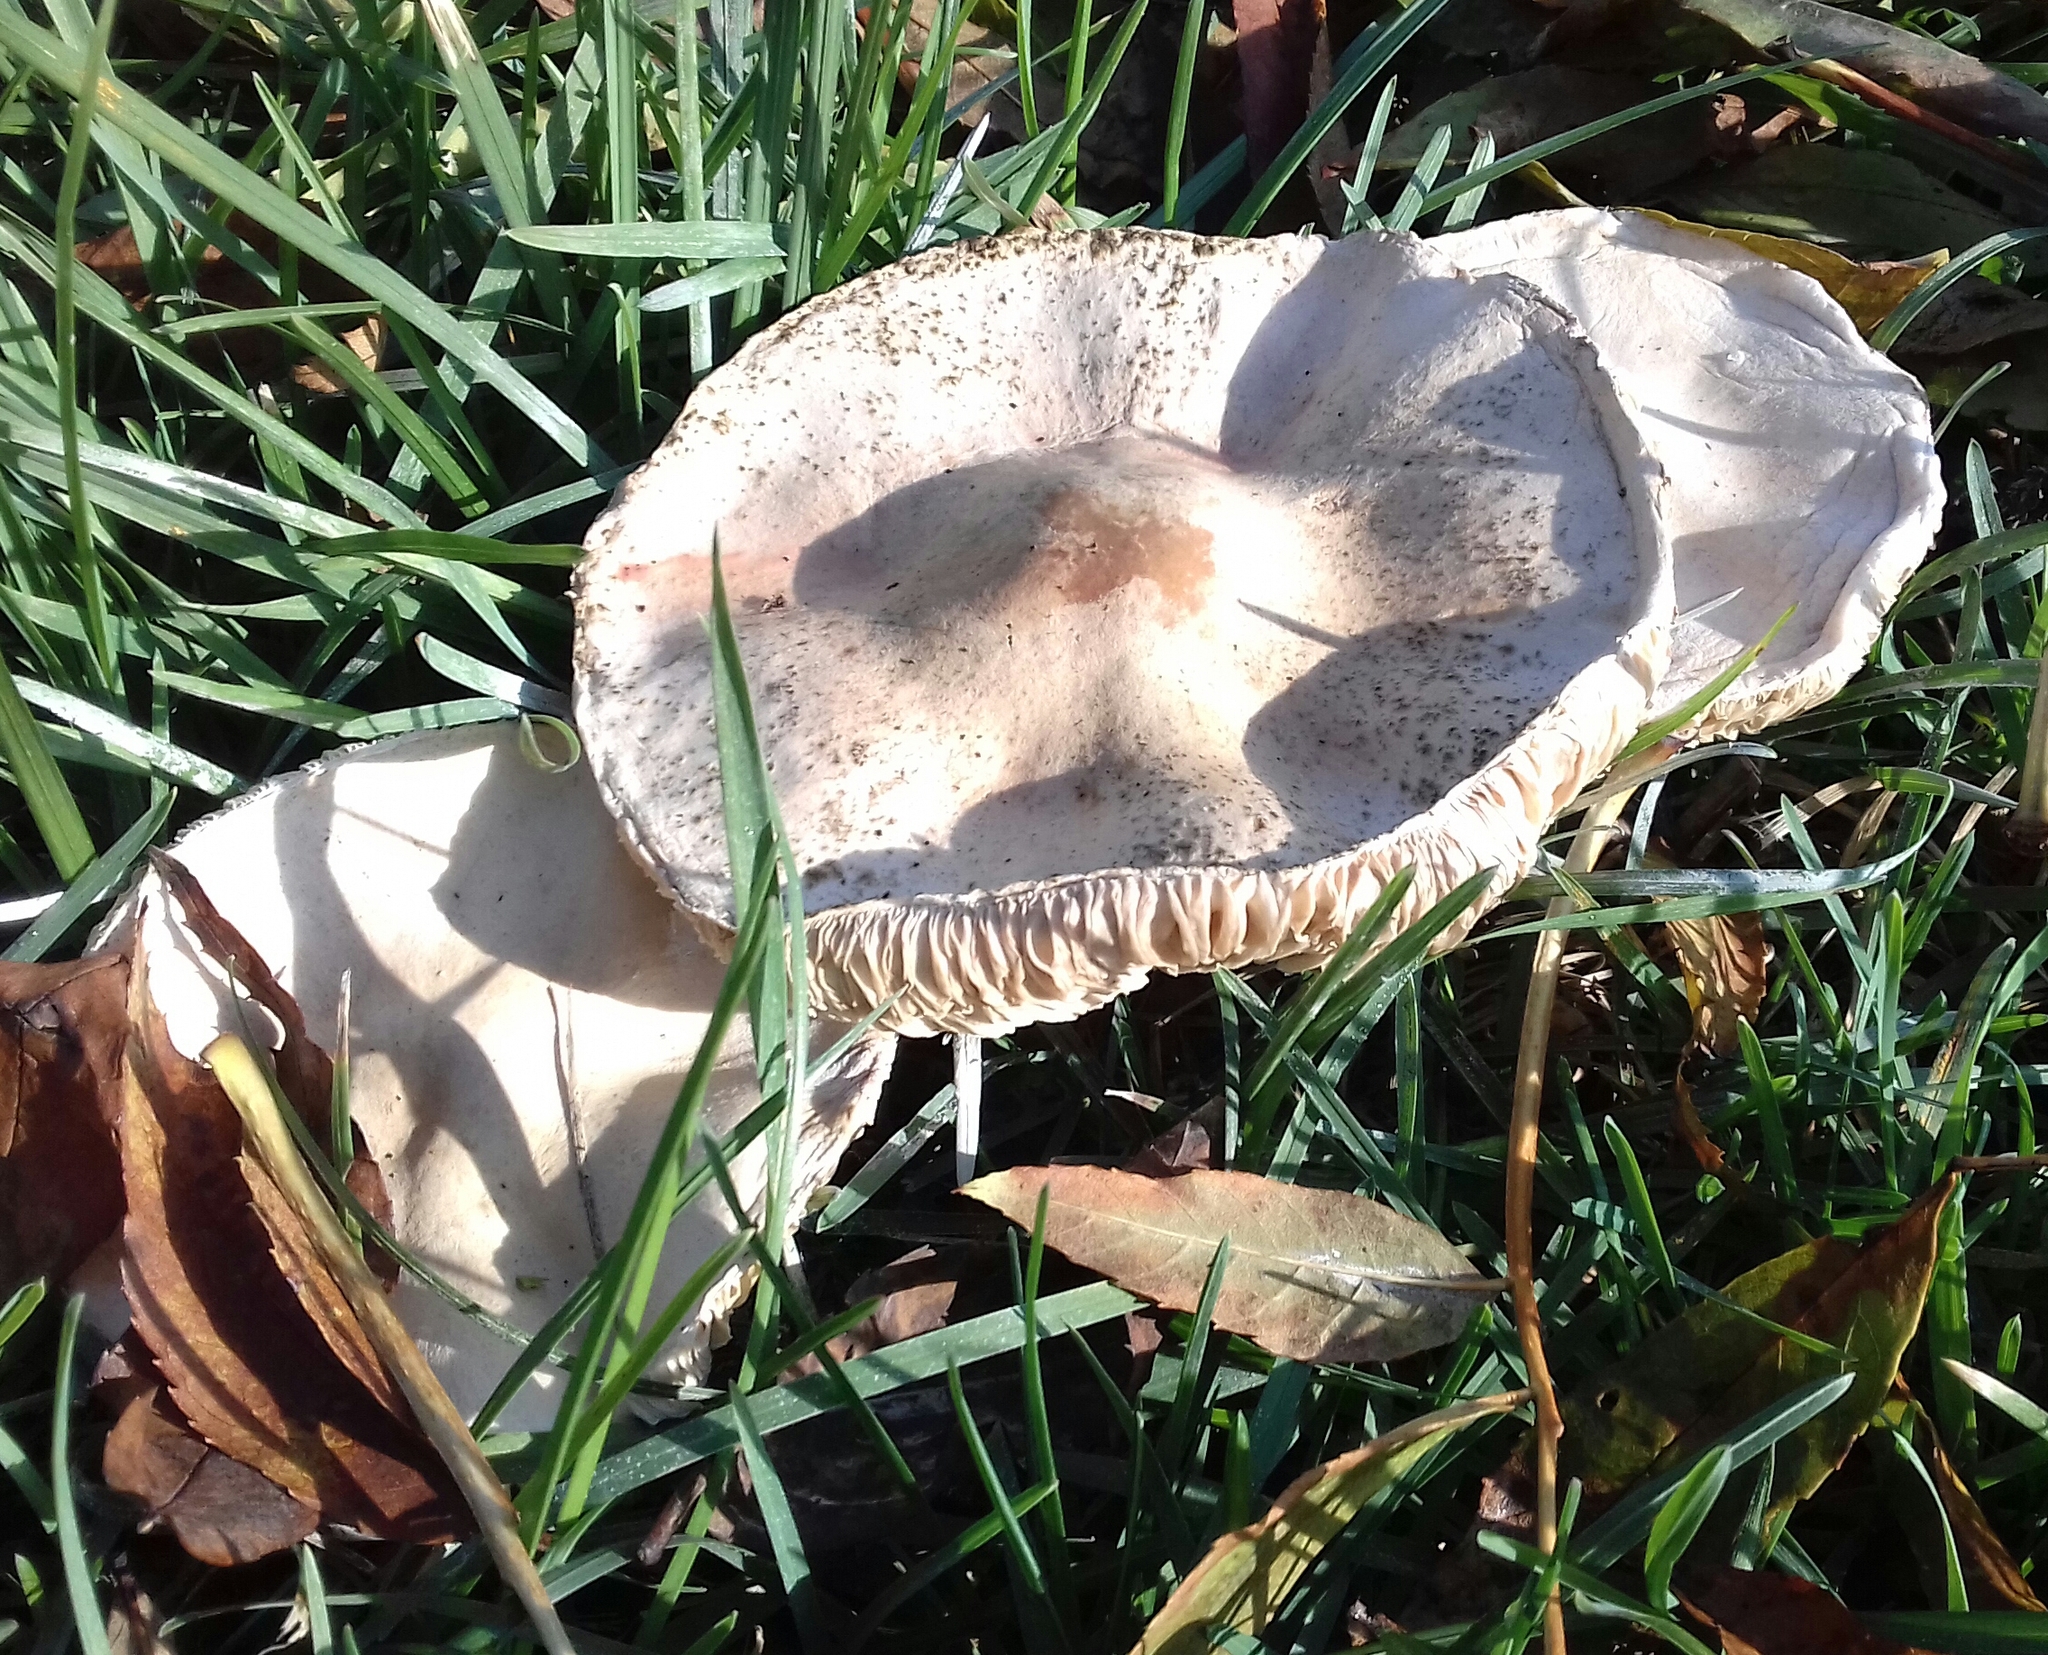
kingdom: Fungi
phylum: Basidiomycota
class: Agaricomycetes
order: Agaricales
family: Agaricaceae
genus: Leucoagaricus
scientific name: Leucoagaricus leucothites
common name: White dapperling
